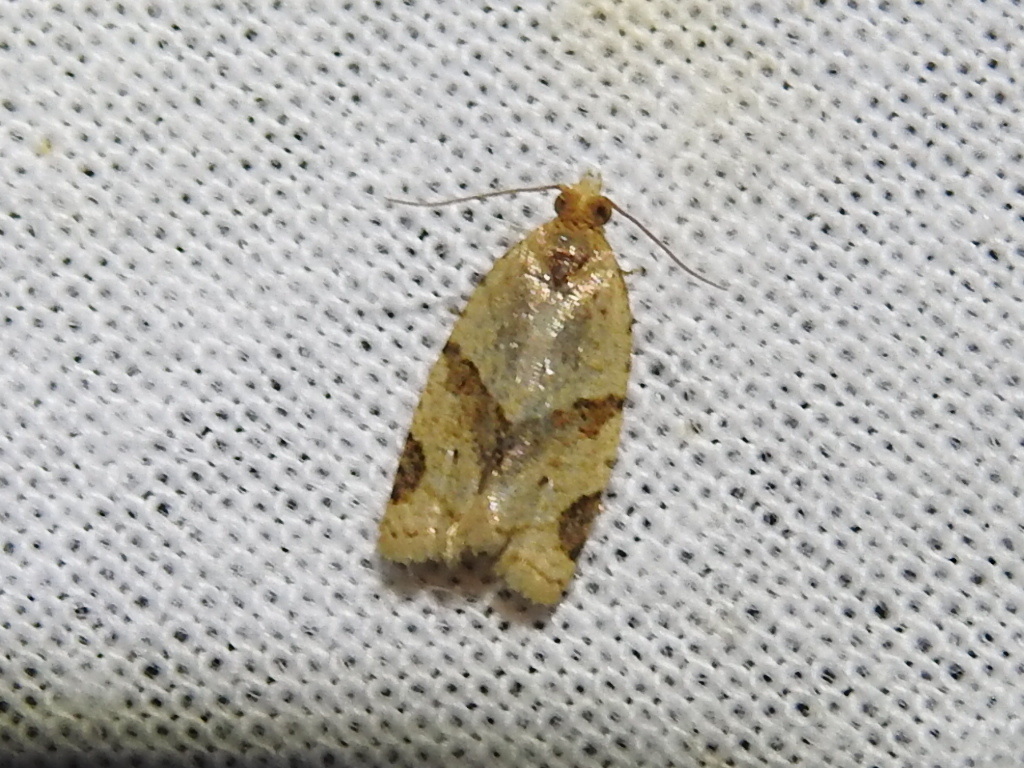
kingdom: Animalia
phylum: Arthropoda
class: Insecta
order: Lepidoptera
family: Tortricidae
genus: Clepsis
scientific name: Clepsis peritana
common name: Garden tortrix
